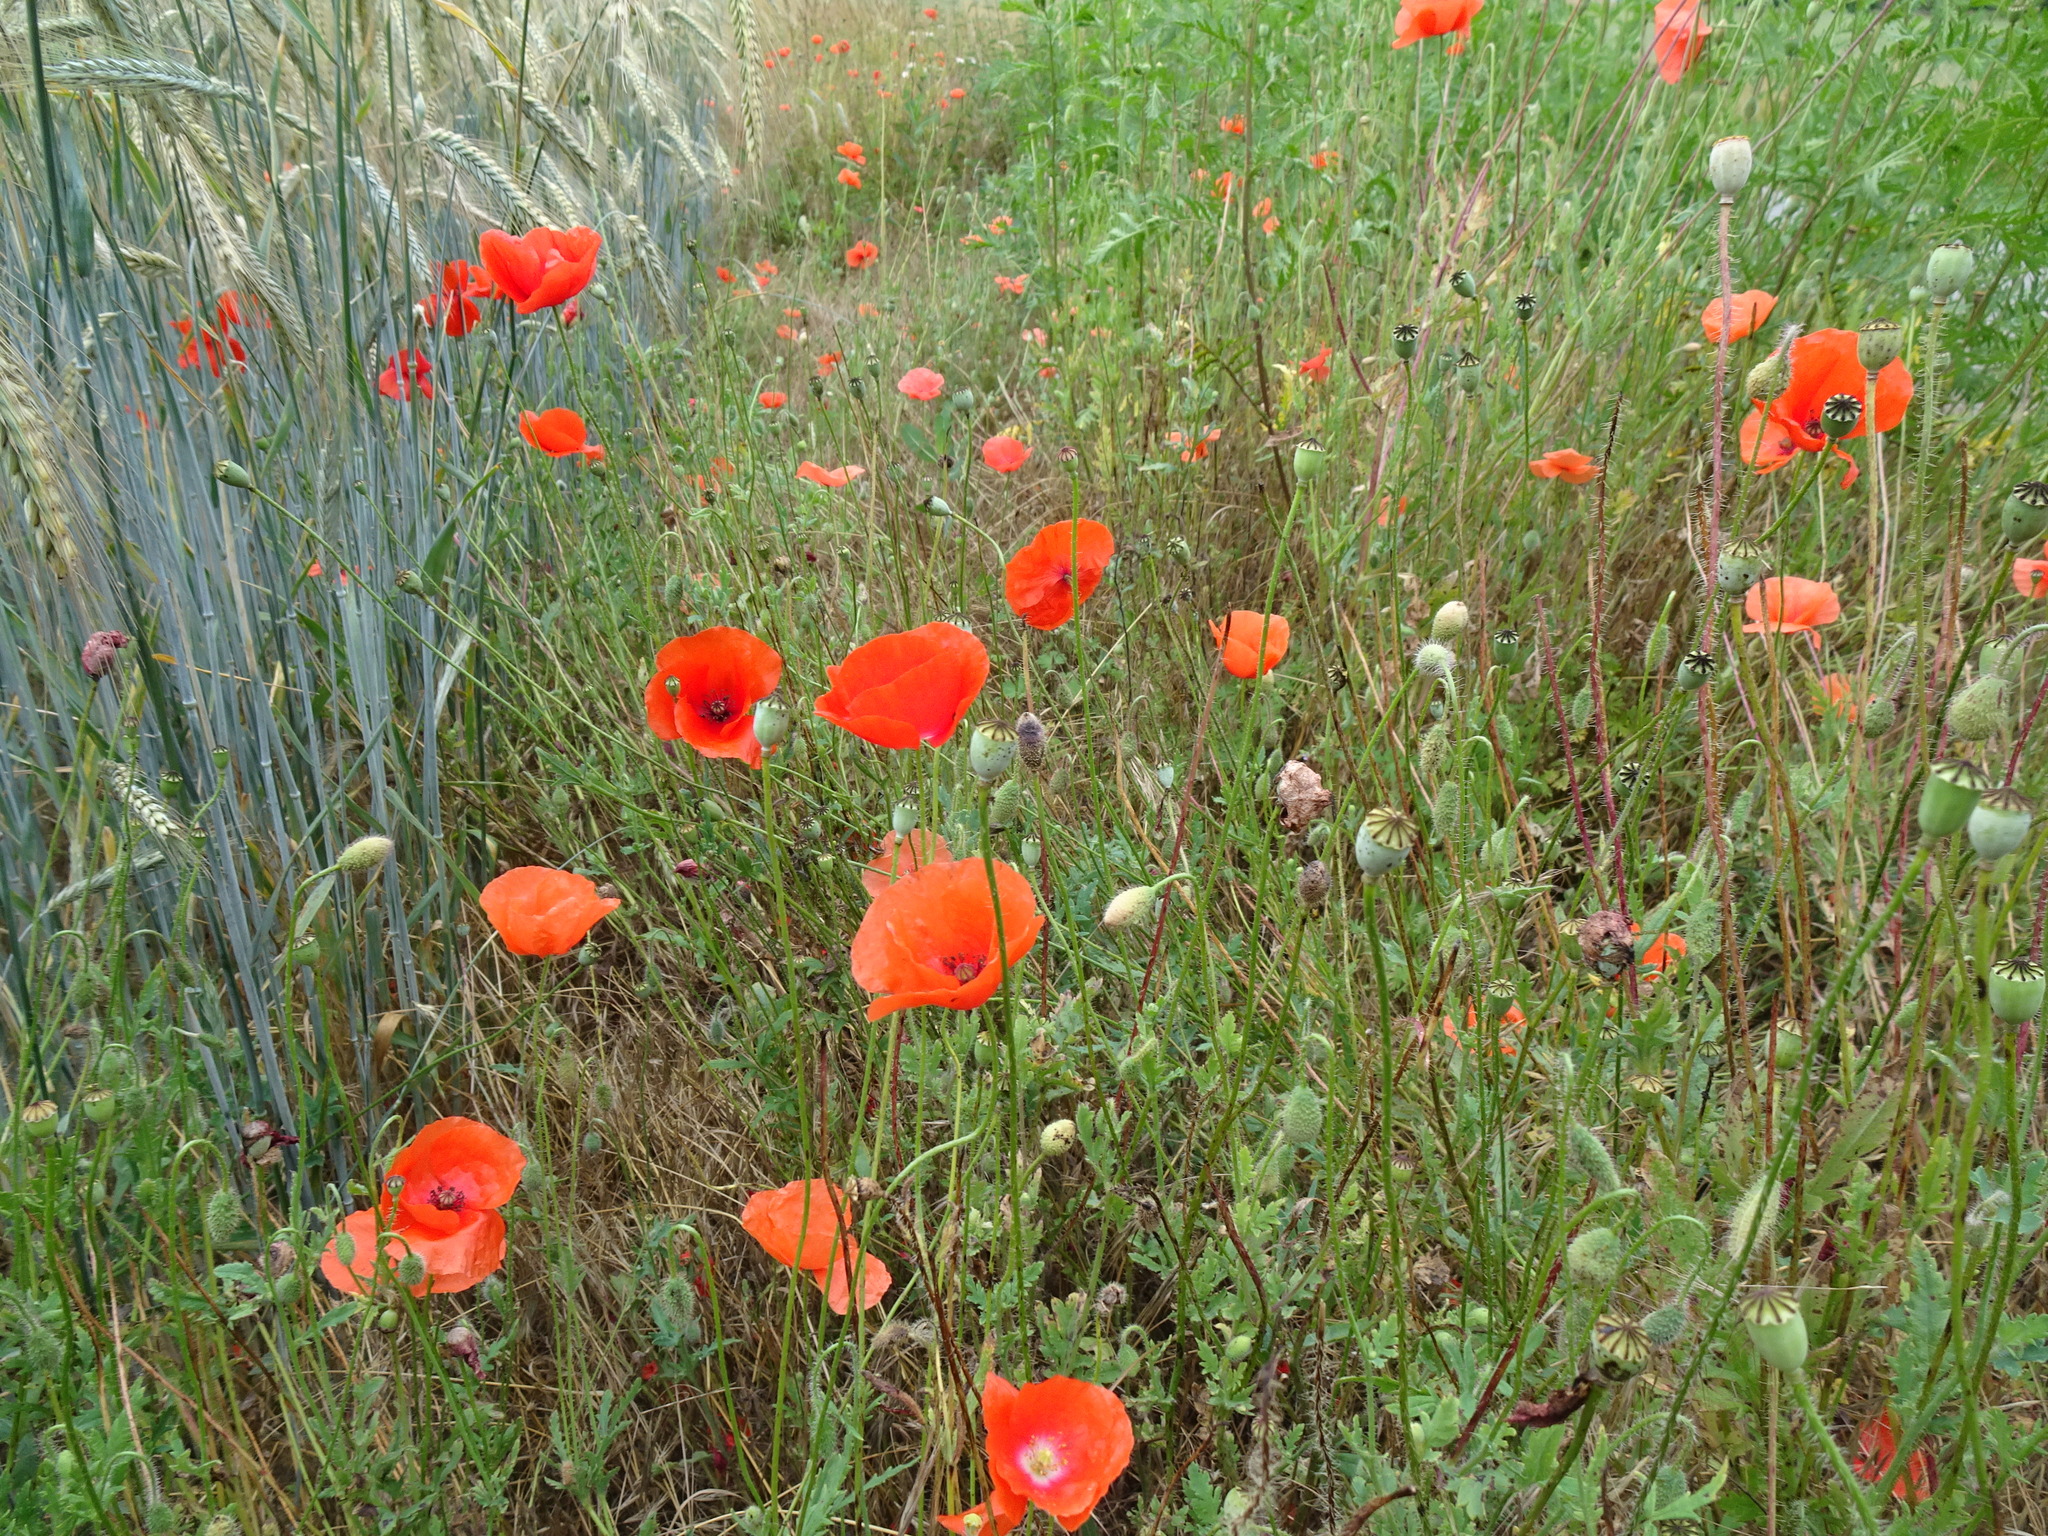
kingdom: Plantae
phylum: Tracheophyta
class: Magnoliopsida
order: Ranunculales
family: Papaveraceae
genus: Papaver
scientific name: Papaver rhoeas
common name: Corn poppy
